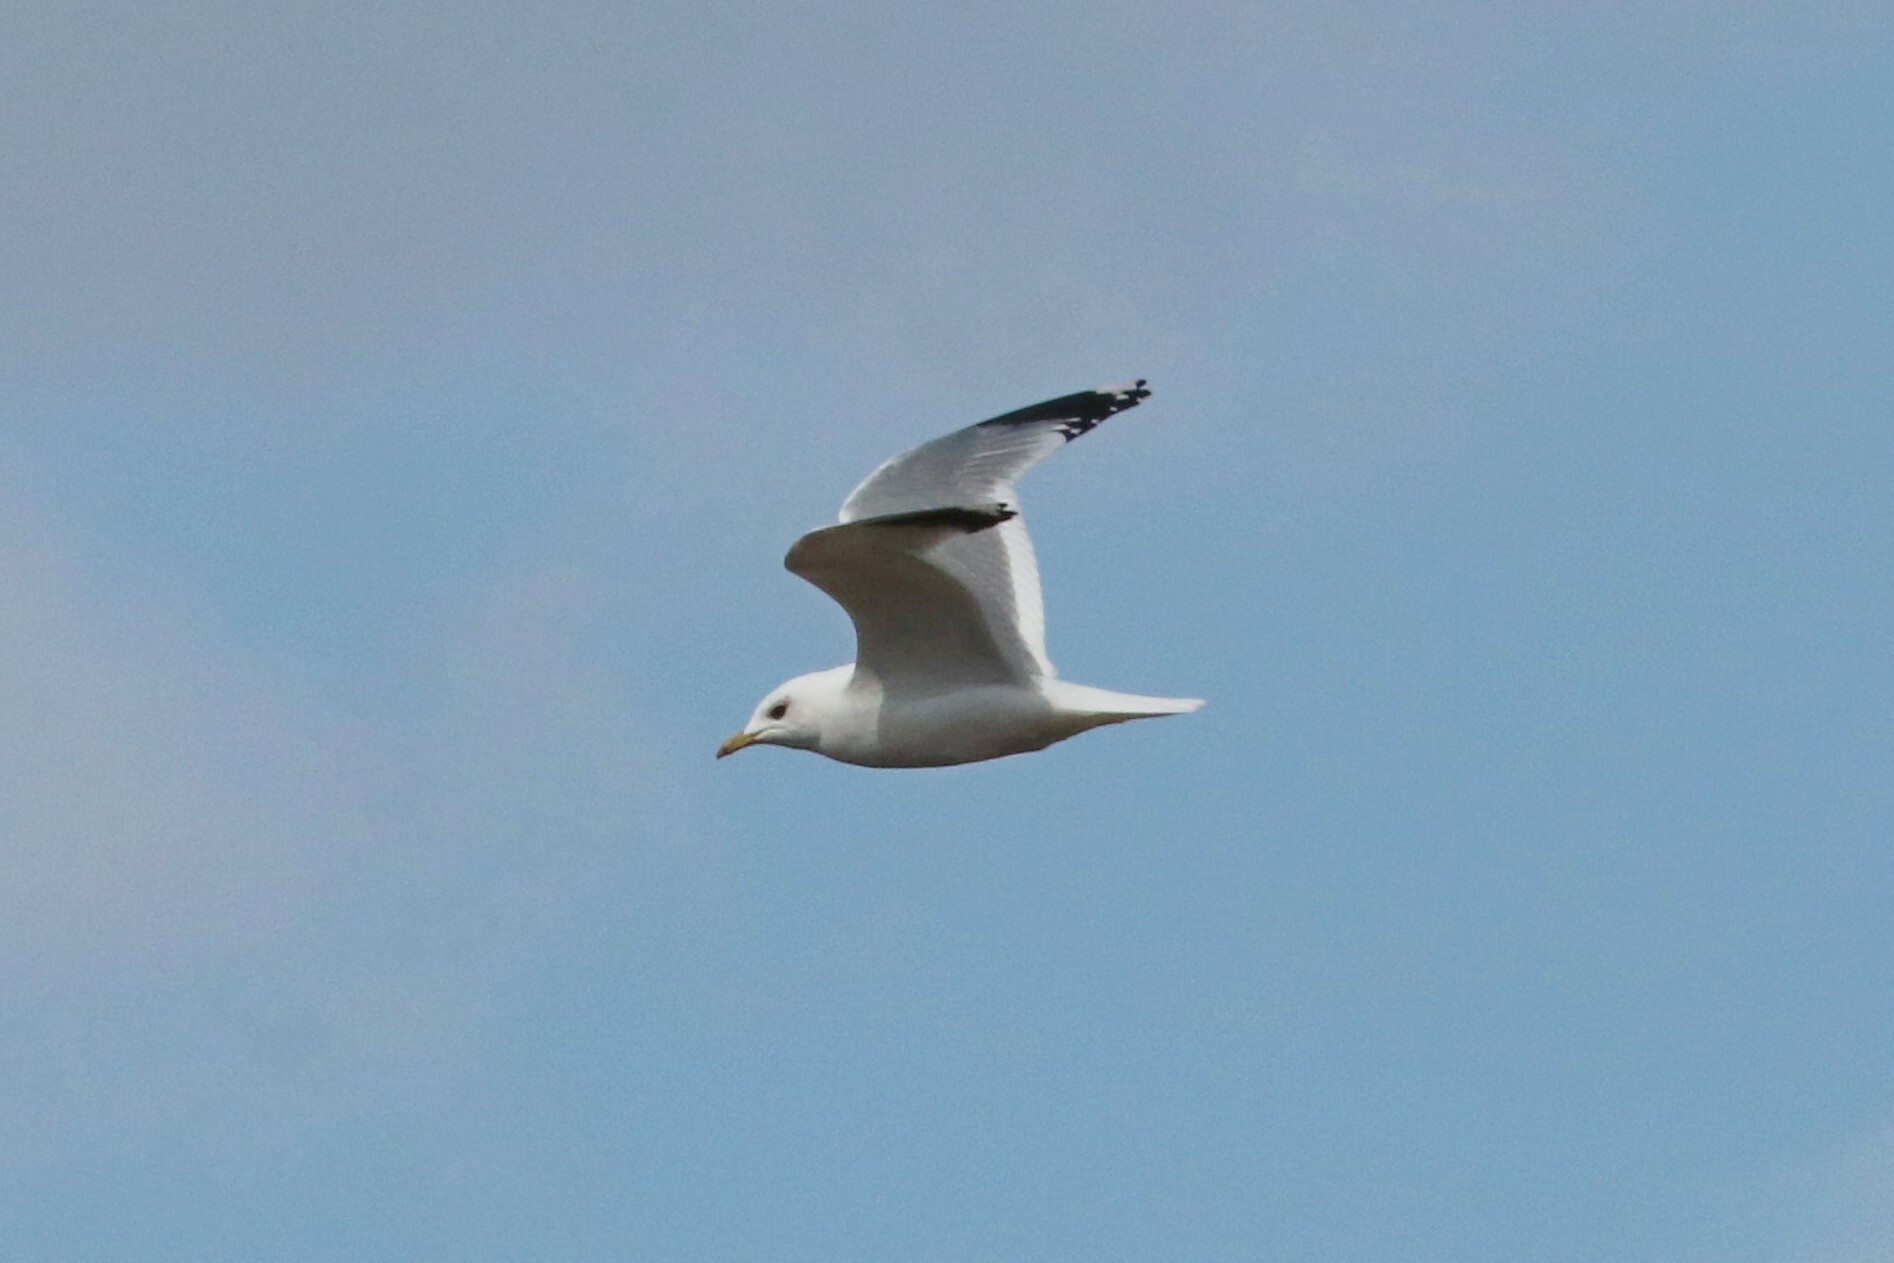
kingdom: Animalia
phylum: Chordata
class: Aves
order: Charadriiformes
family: Laridae
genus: Larus
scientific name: Larus canus
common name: Mew gull
